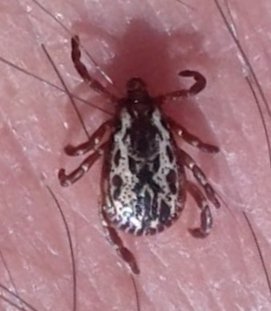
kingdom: Animalia
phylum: Arthropoda
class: Arachnida
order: Ixodida
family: Ixodidae
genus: Dermacentor
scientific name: Dermacentor variabilis
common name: American dog tick
